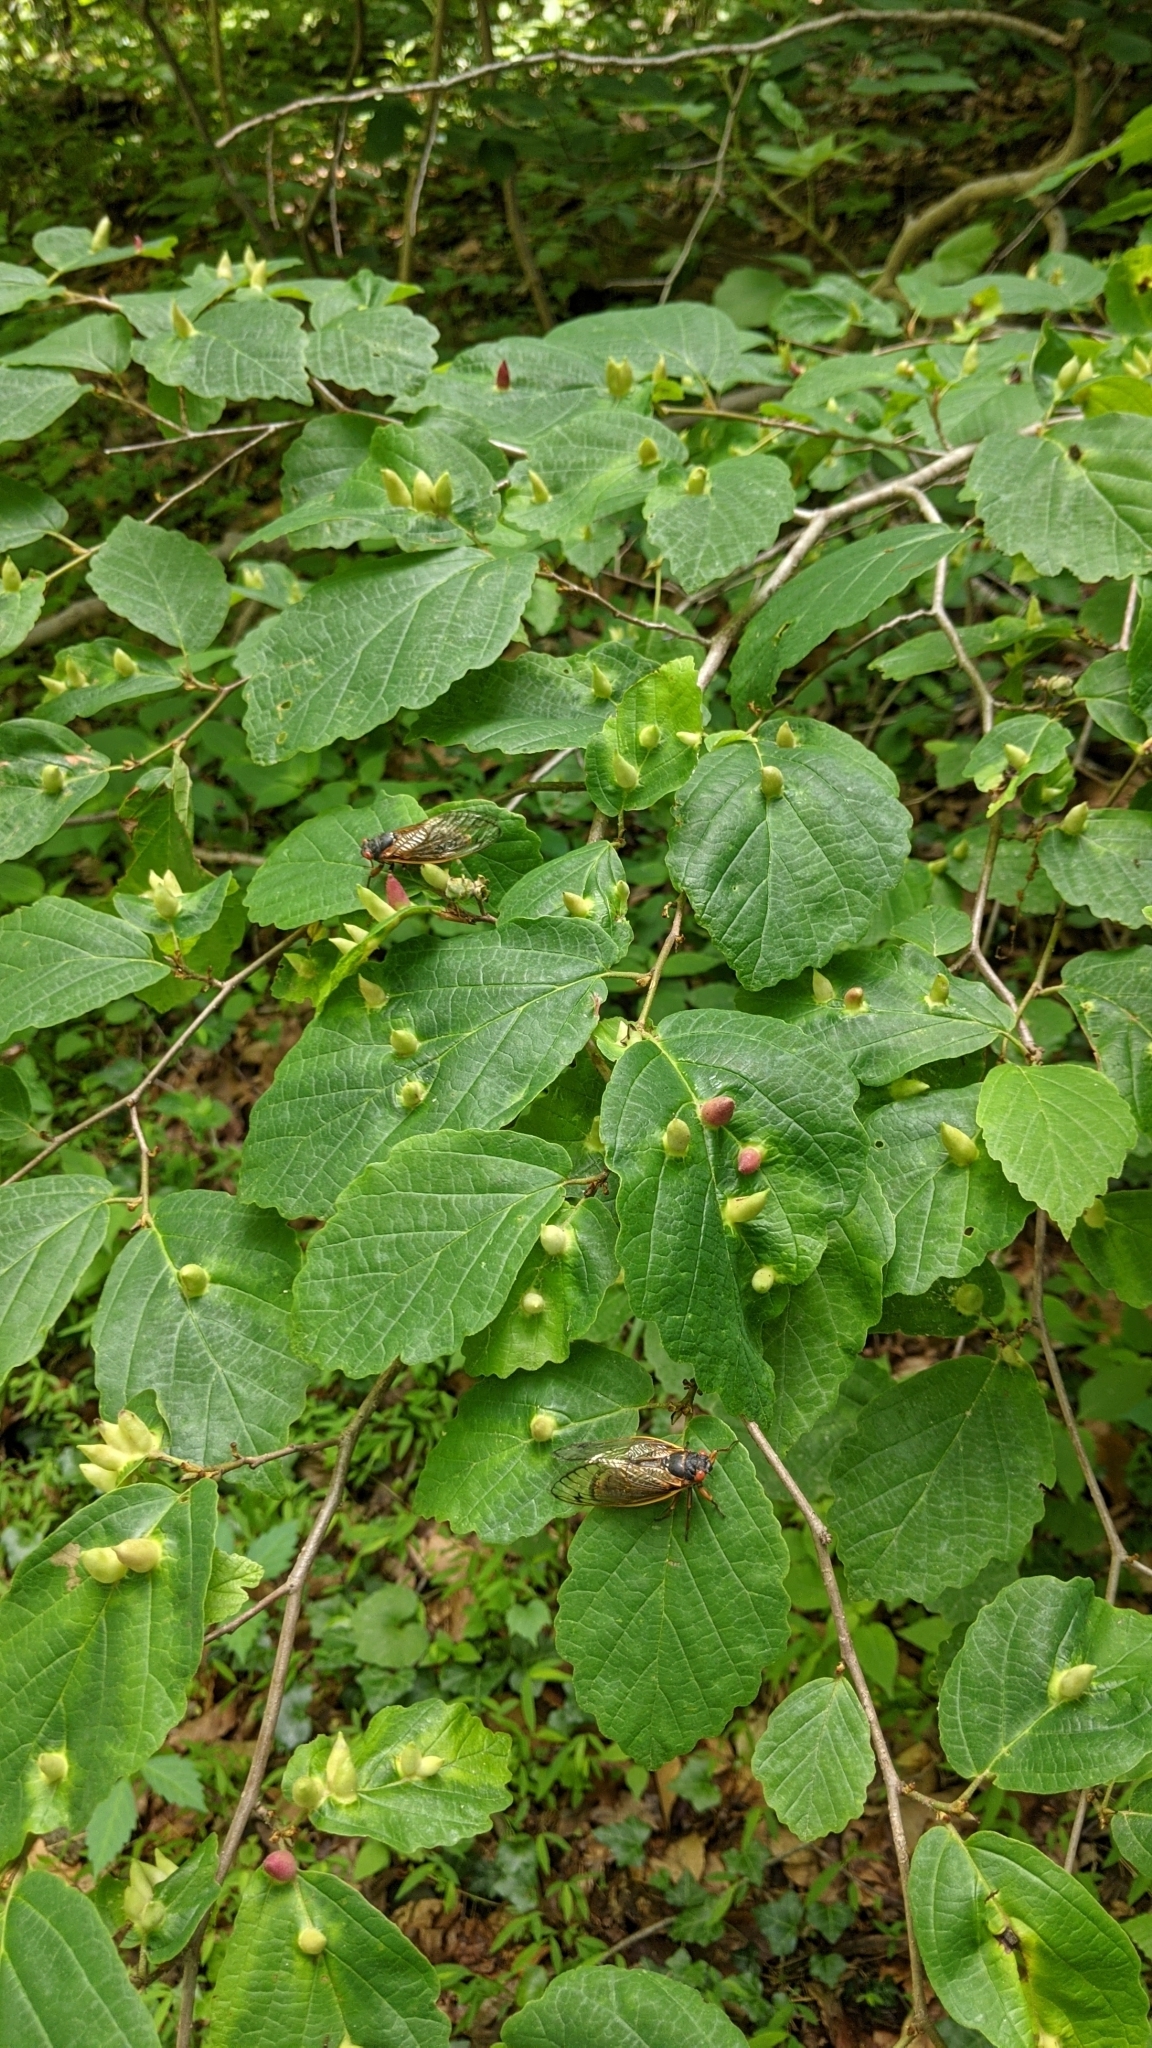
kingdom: Animalia
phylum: Arthropoda
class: Insecta
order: Hemiptera
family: Aphididae
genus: Hormaphis
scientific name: Hormaphis hamamelidis
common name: Witch-hazel cone gall aphid
